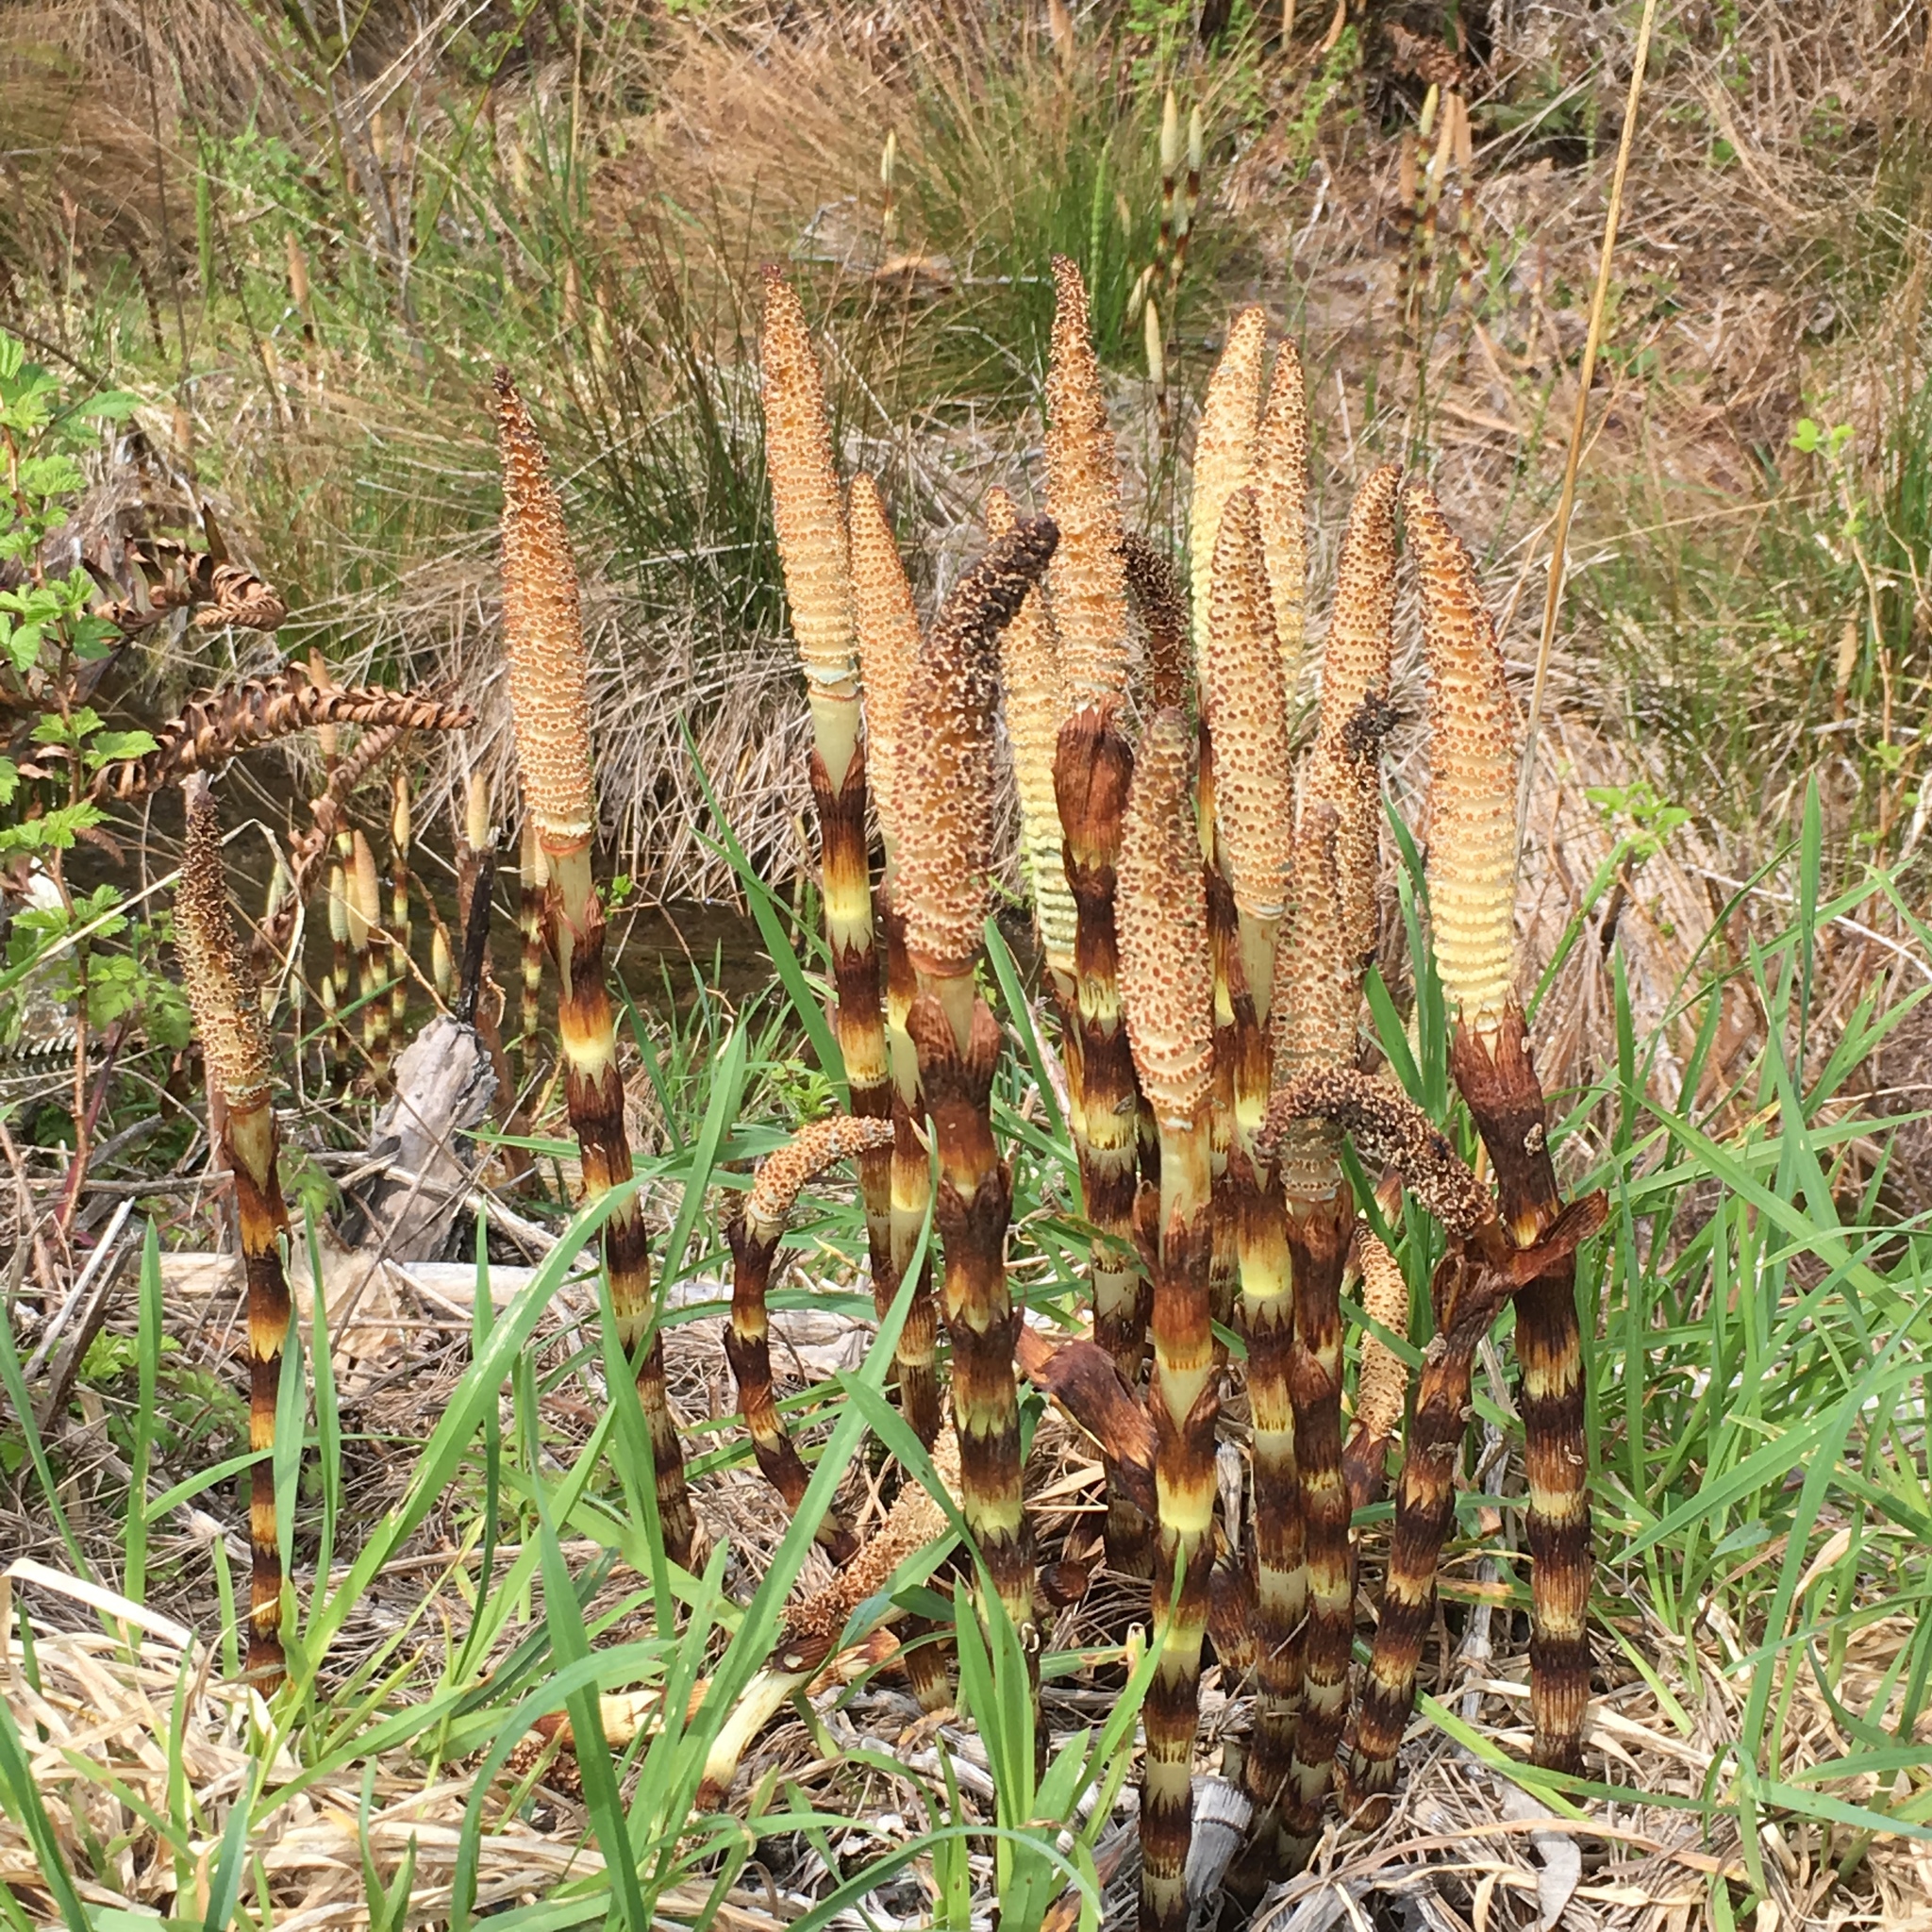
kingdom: Plantae
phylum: Tracheophyta
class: Polypodiopsida
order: Equisetales
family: Equisetaceae
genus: Equisetum
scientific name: Equisetum braunii
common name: Braun's horsetail
